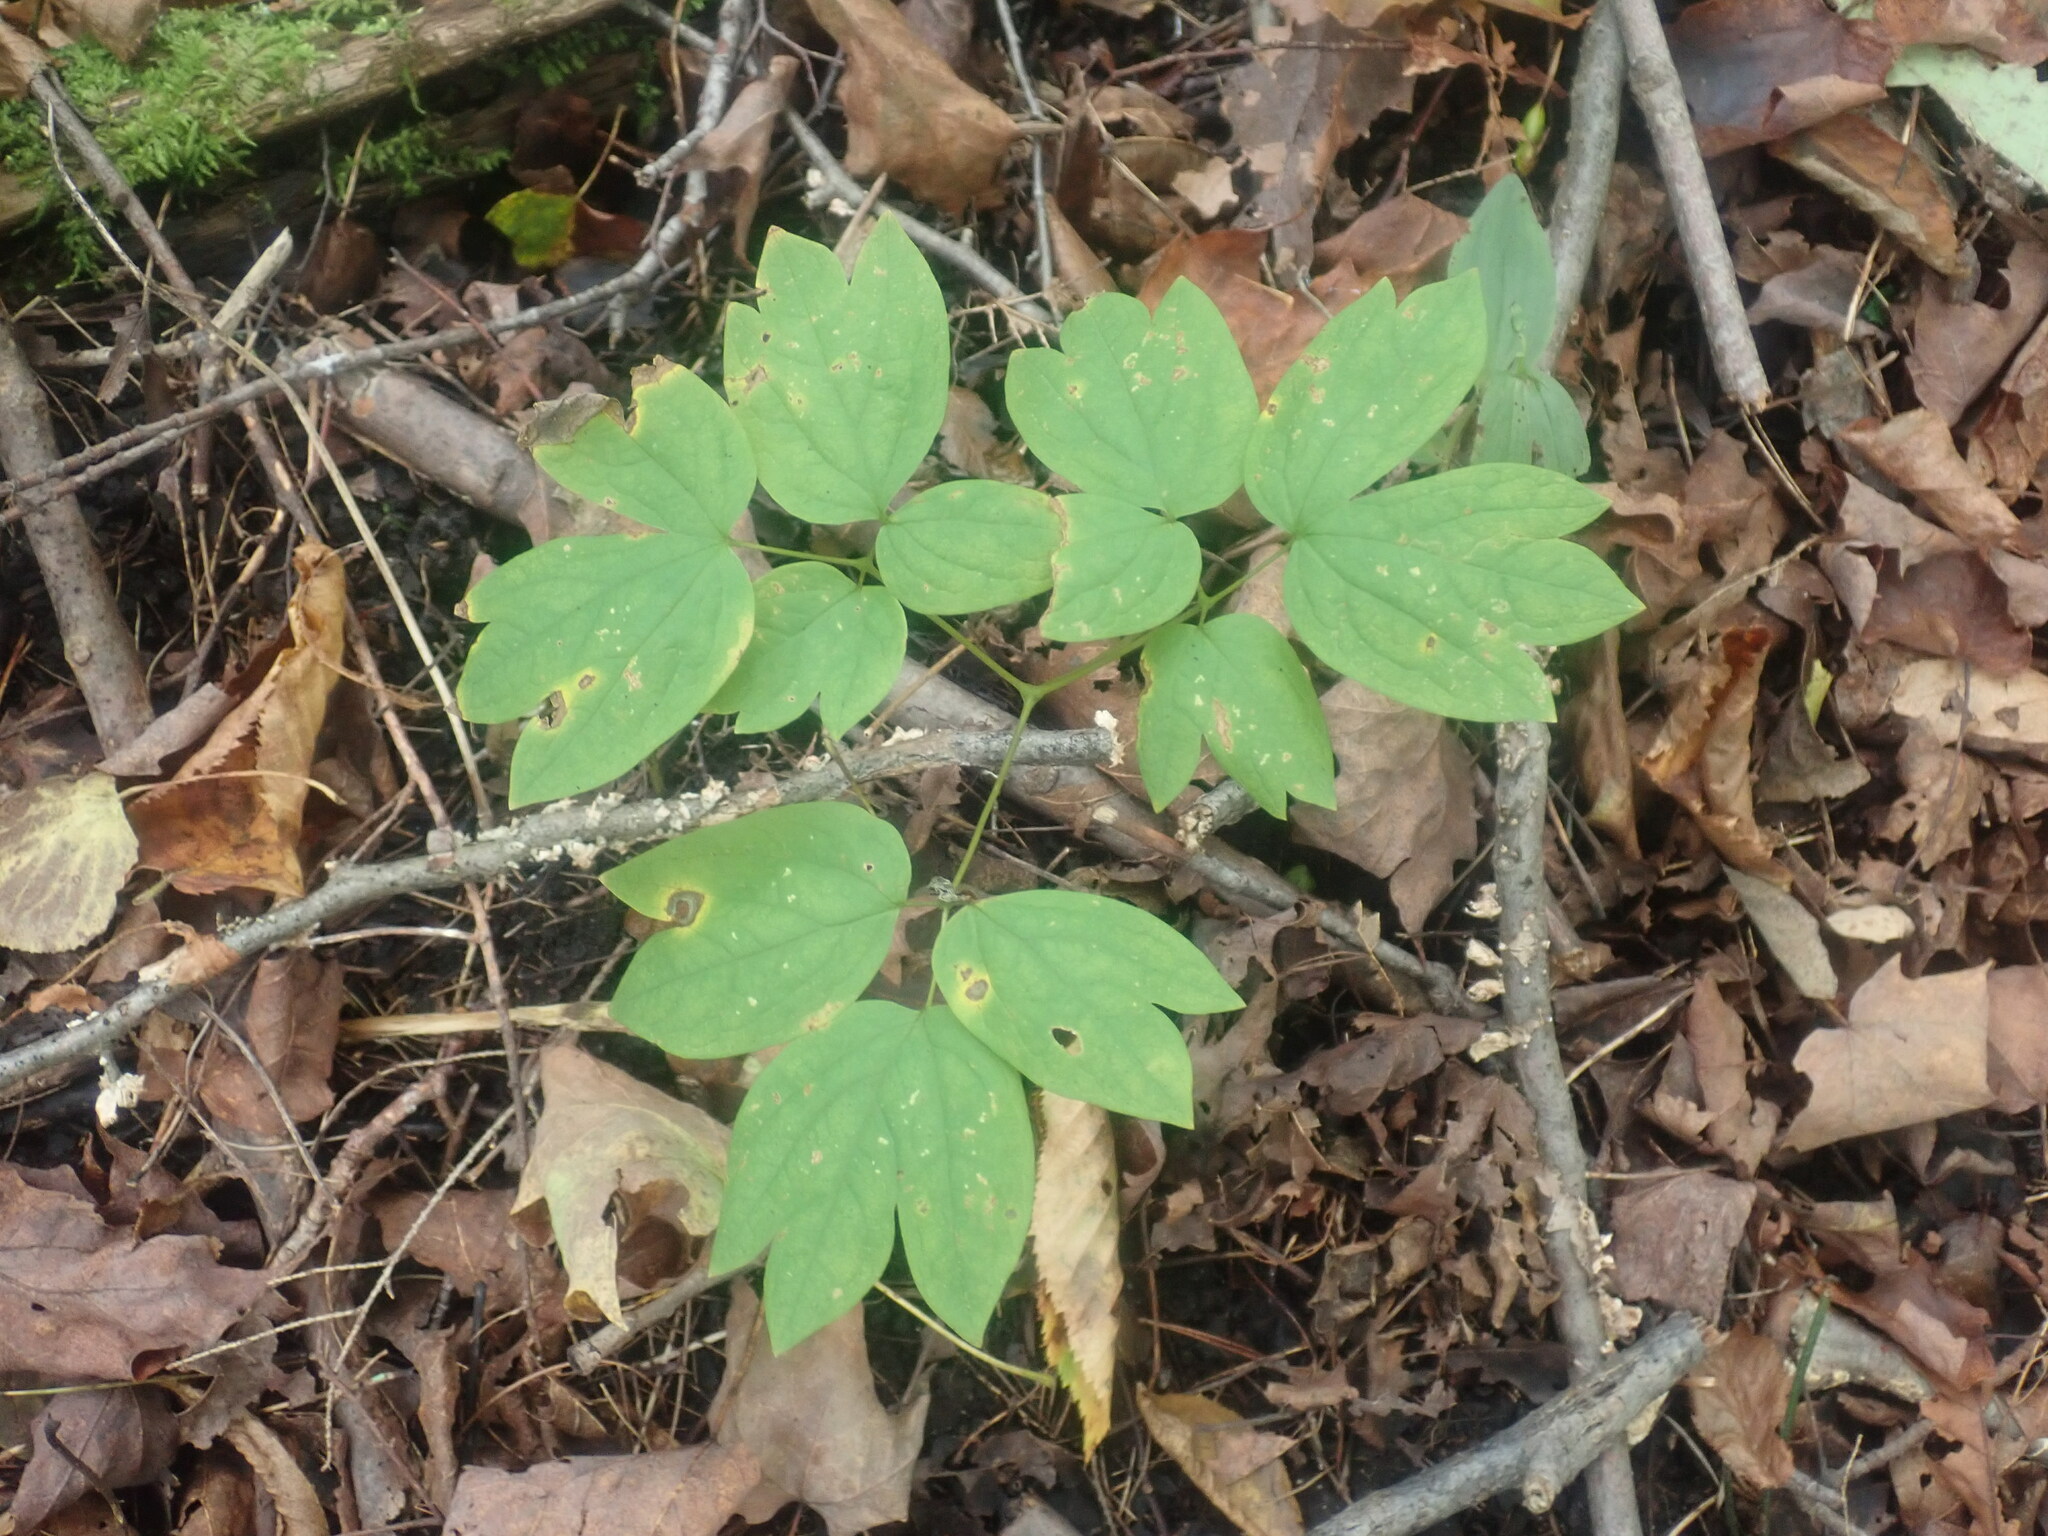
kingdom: Plantae
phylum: Tracheophyta
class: Magnoliopsida
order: Ranunculales
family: Berberidaceae
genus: Caulophyllum
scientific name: Caulophyllum
